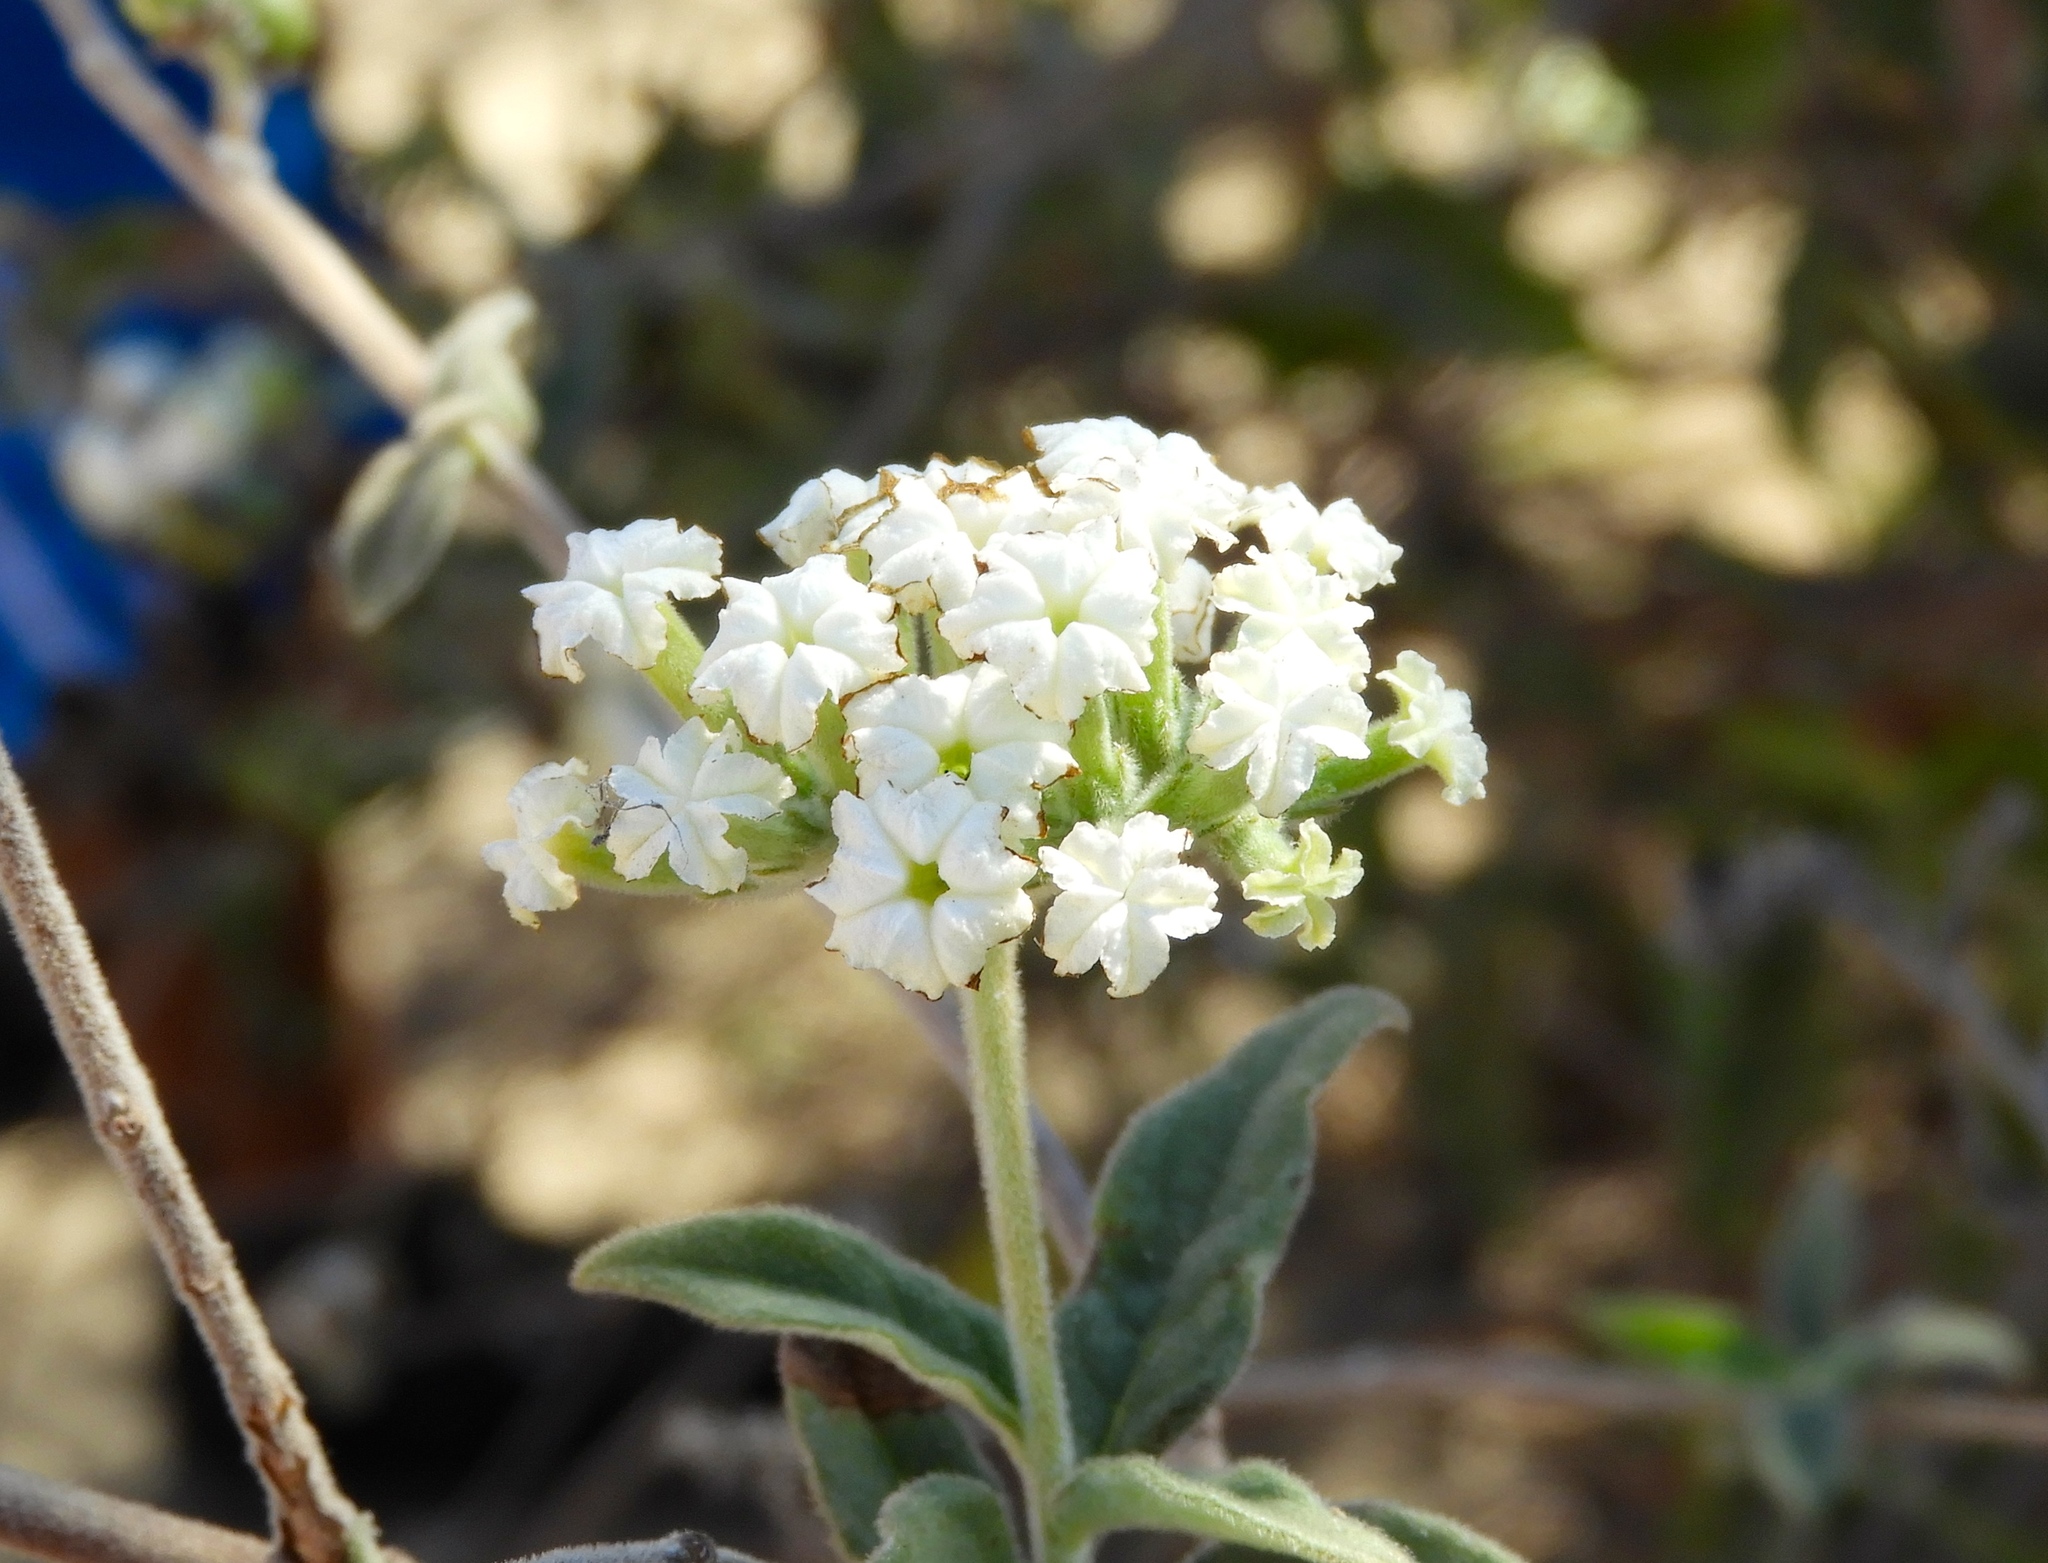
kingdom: Plantae
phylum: Tracheophyta
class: Magnoliopsida
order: Boraginales
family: Heliotropiaceae
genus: Tournefortia
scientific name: Tournefortia mutabilis
